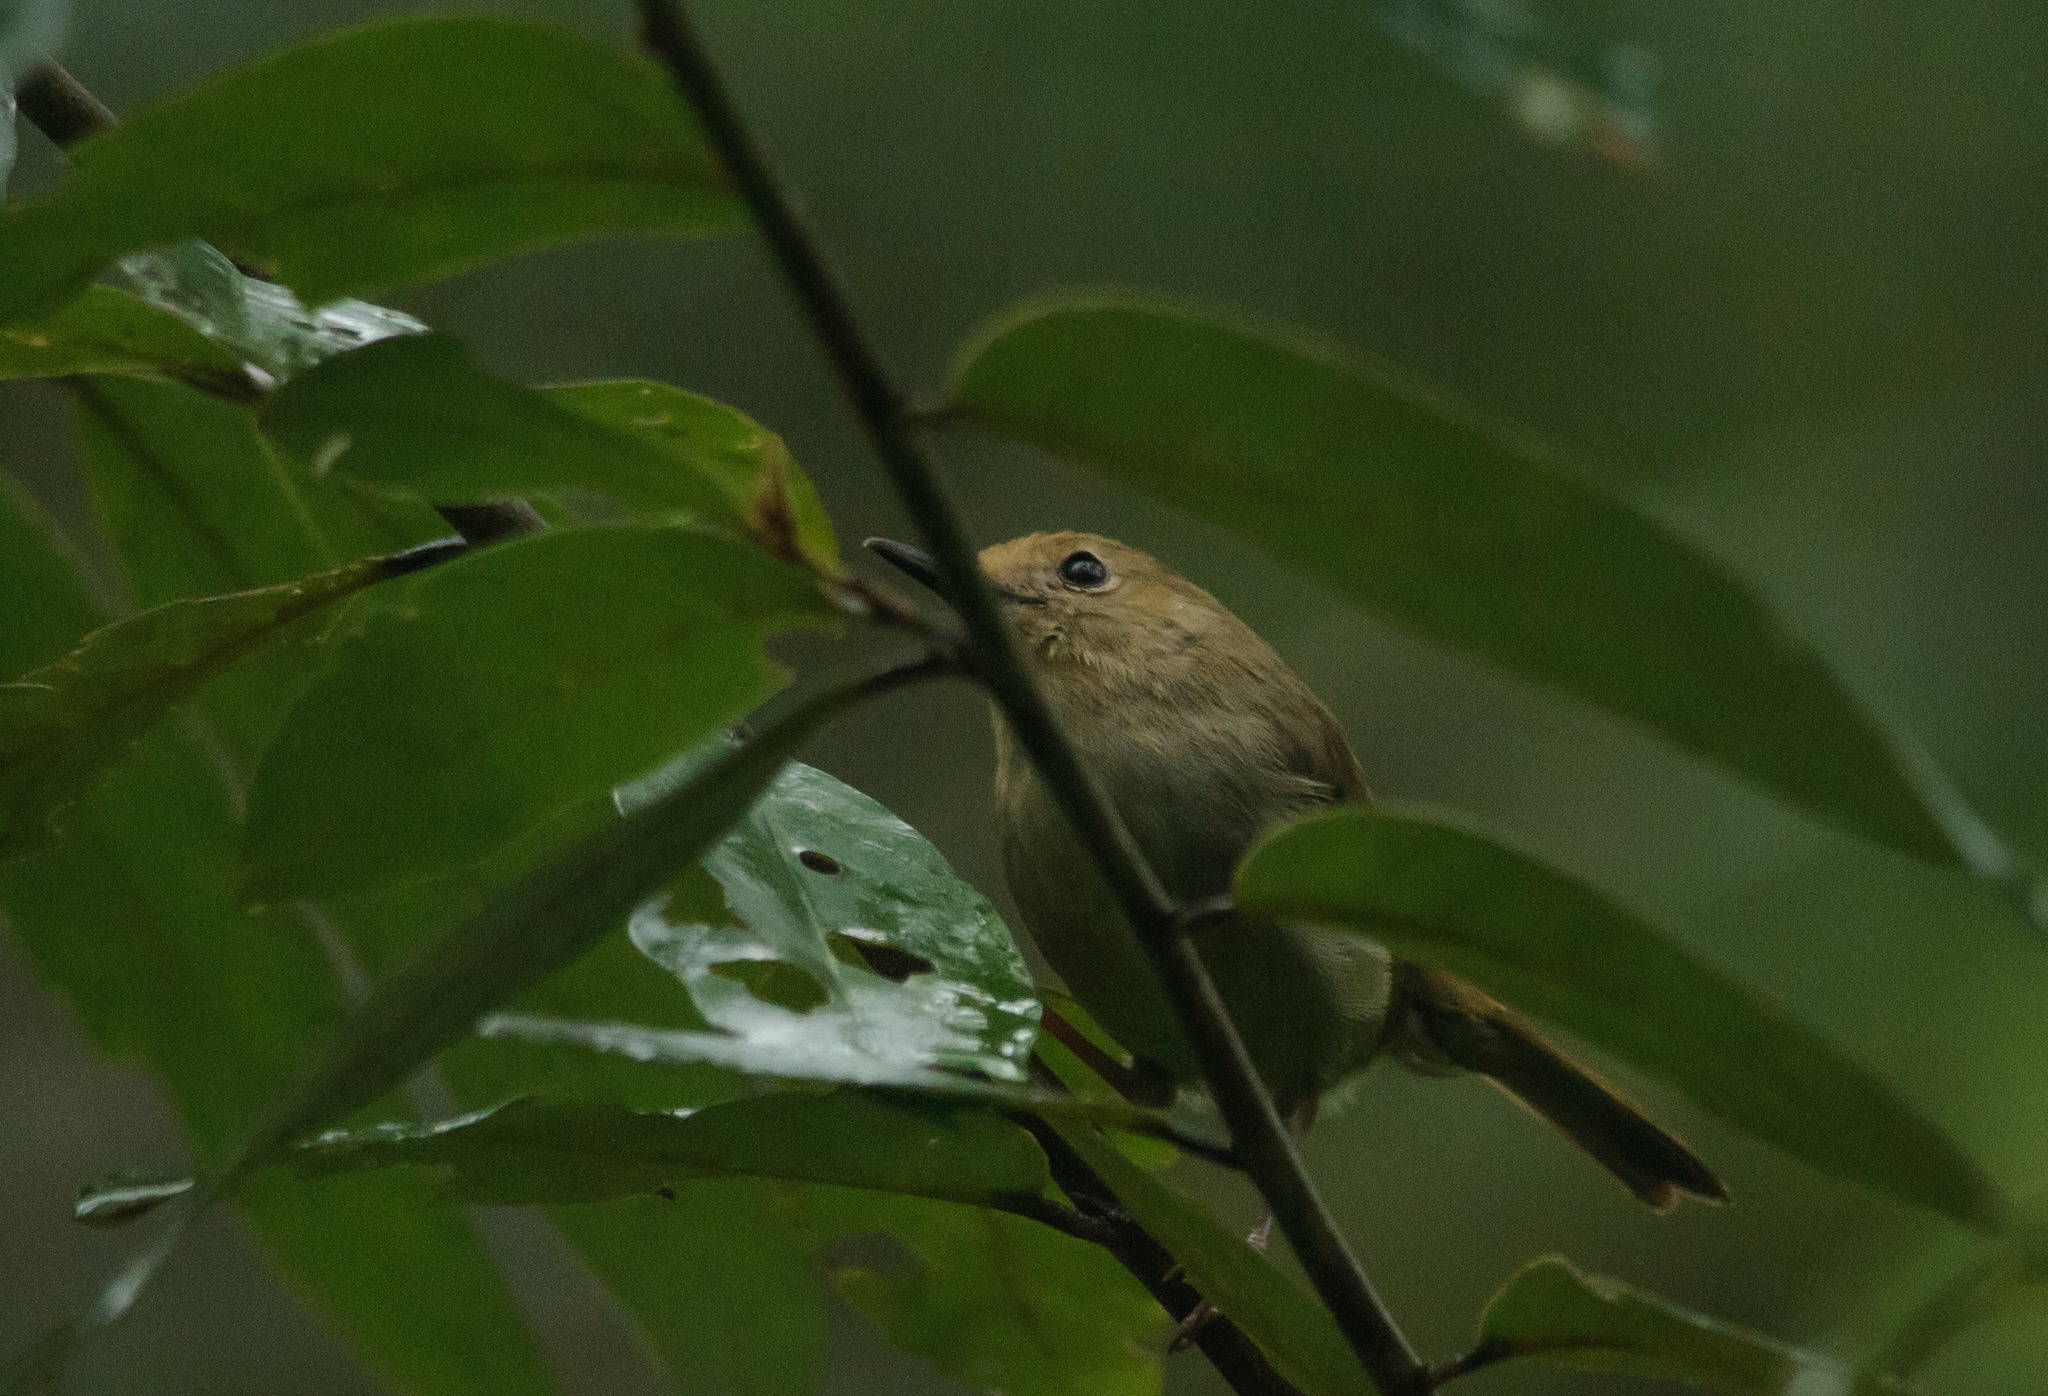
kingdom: Animalia
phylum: Chordata
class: Aves
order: Passeriformes
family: Acanthizidae
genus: Sericornis
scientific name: Sericornis magnirostra
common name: Large-billed scrubwren
